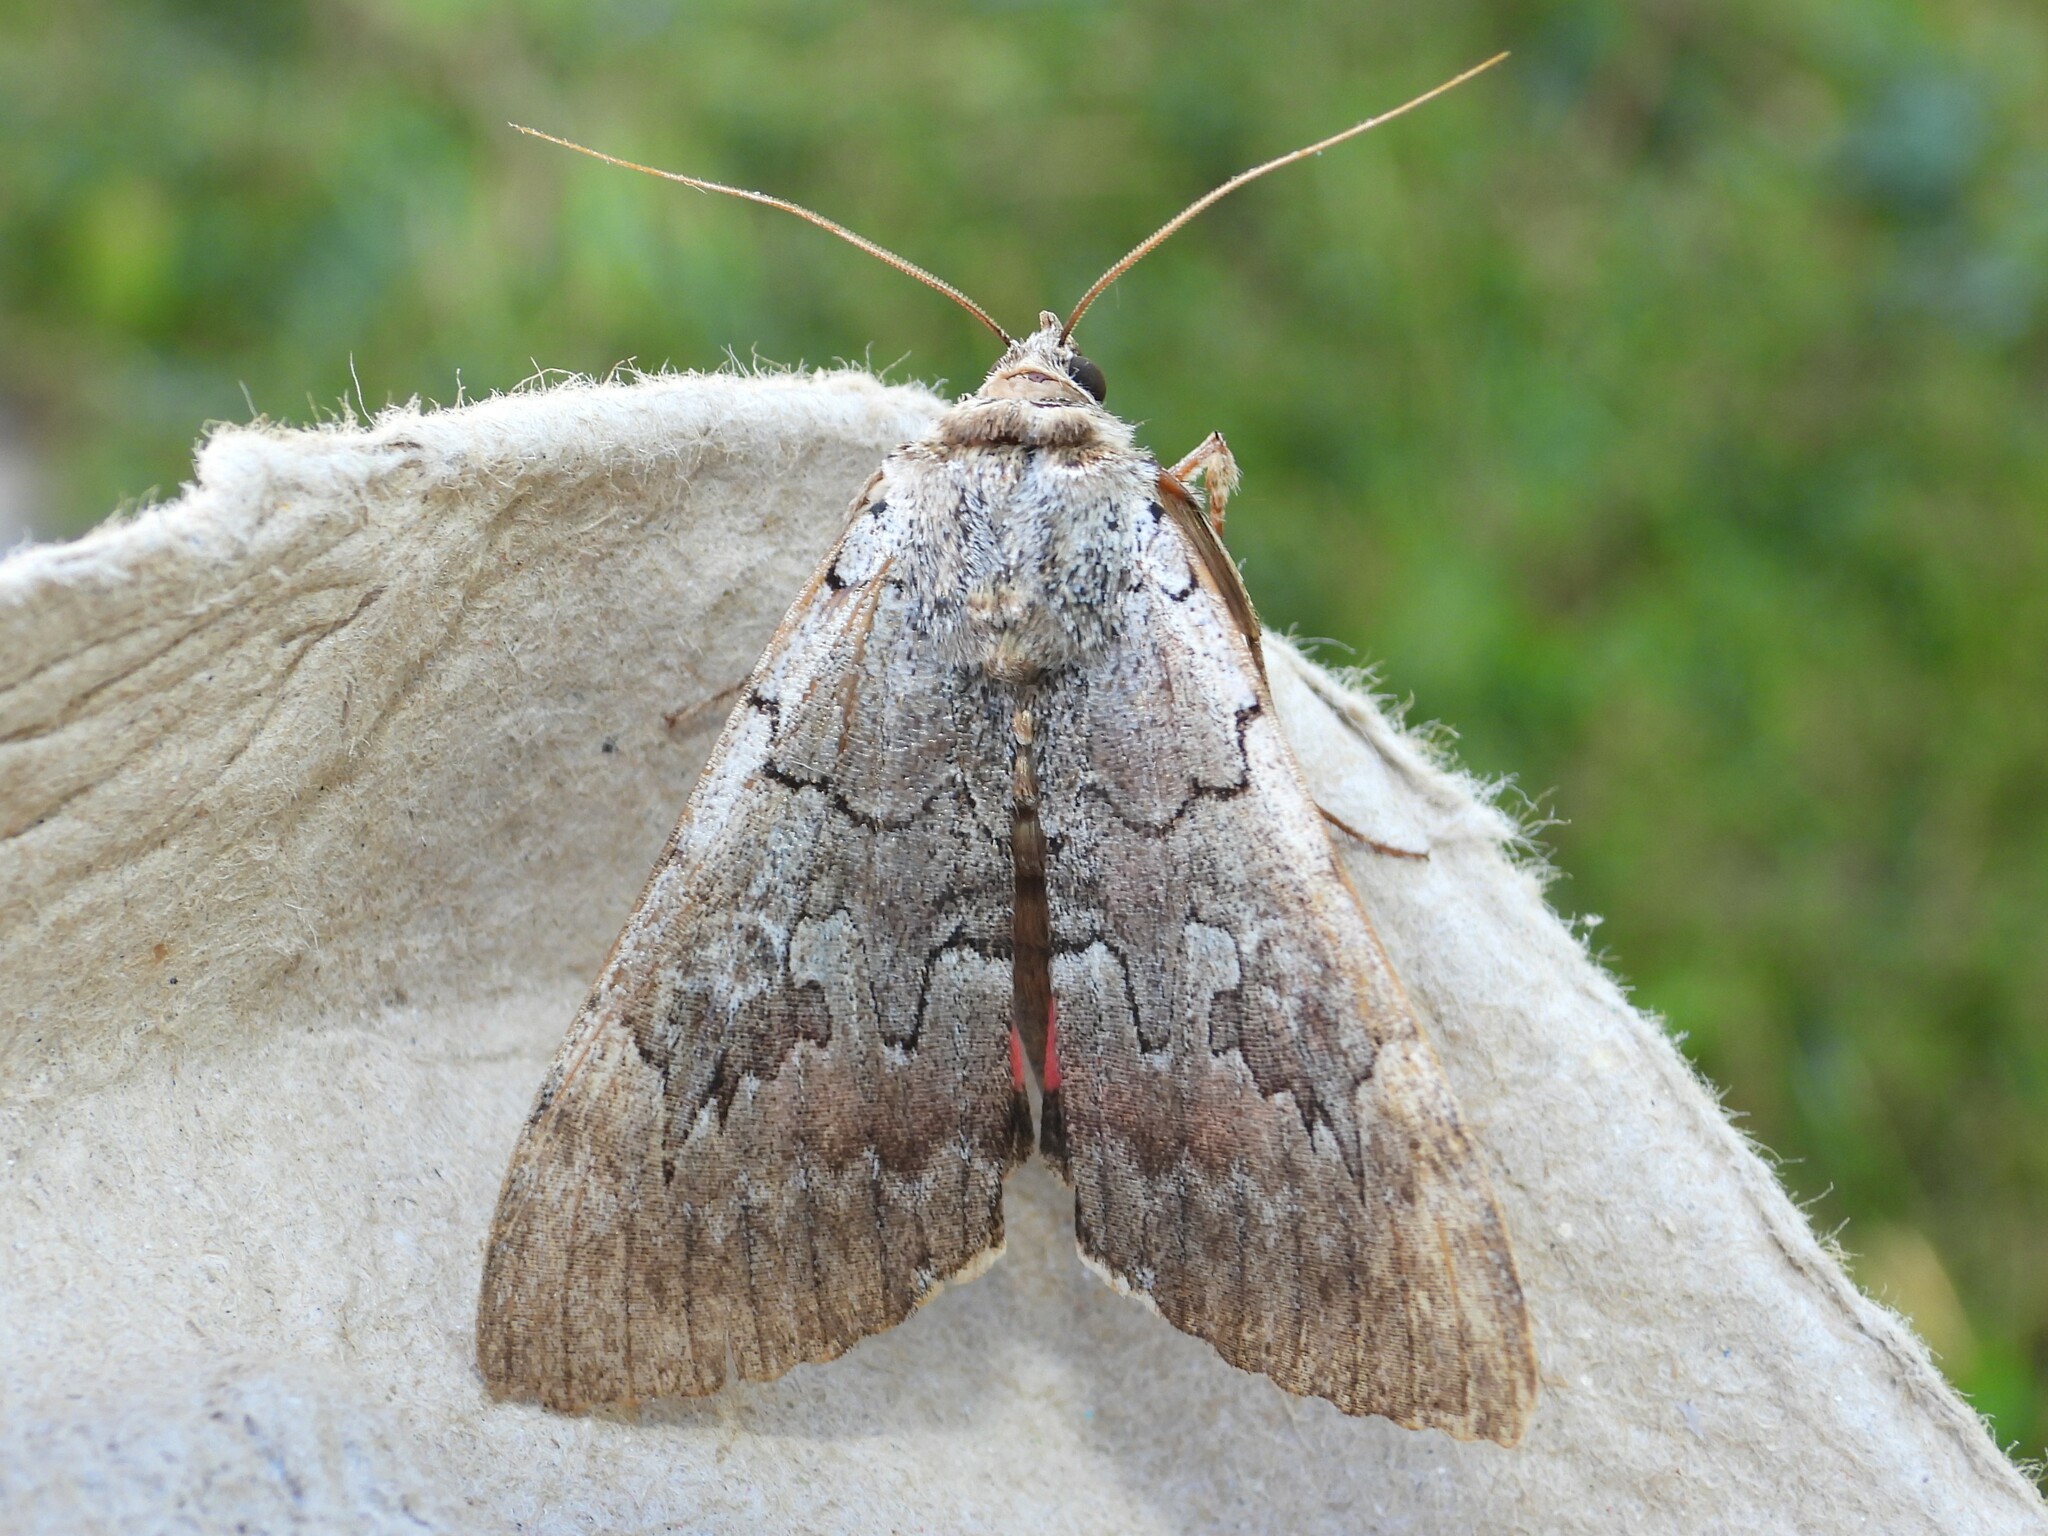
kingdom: Animalia
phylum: Arthropoda
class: Insecta
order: Lepidoptera
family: Erebidae
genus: Catocala
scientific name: Catocala concumbens
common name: Pink underwing
